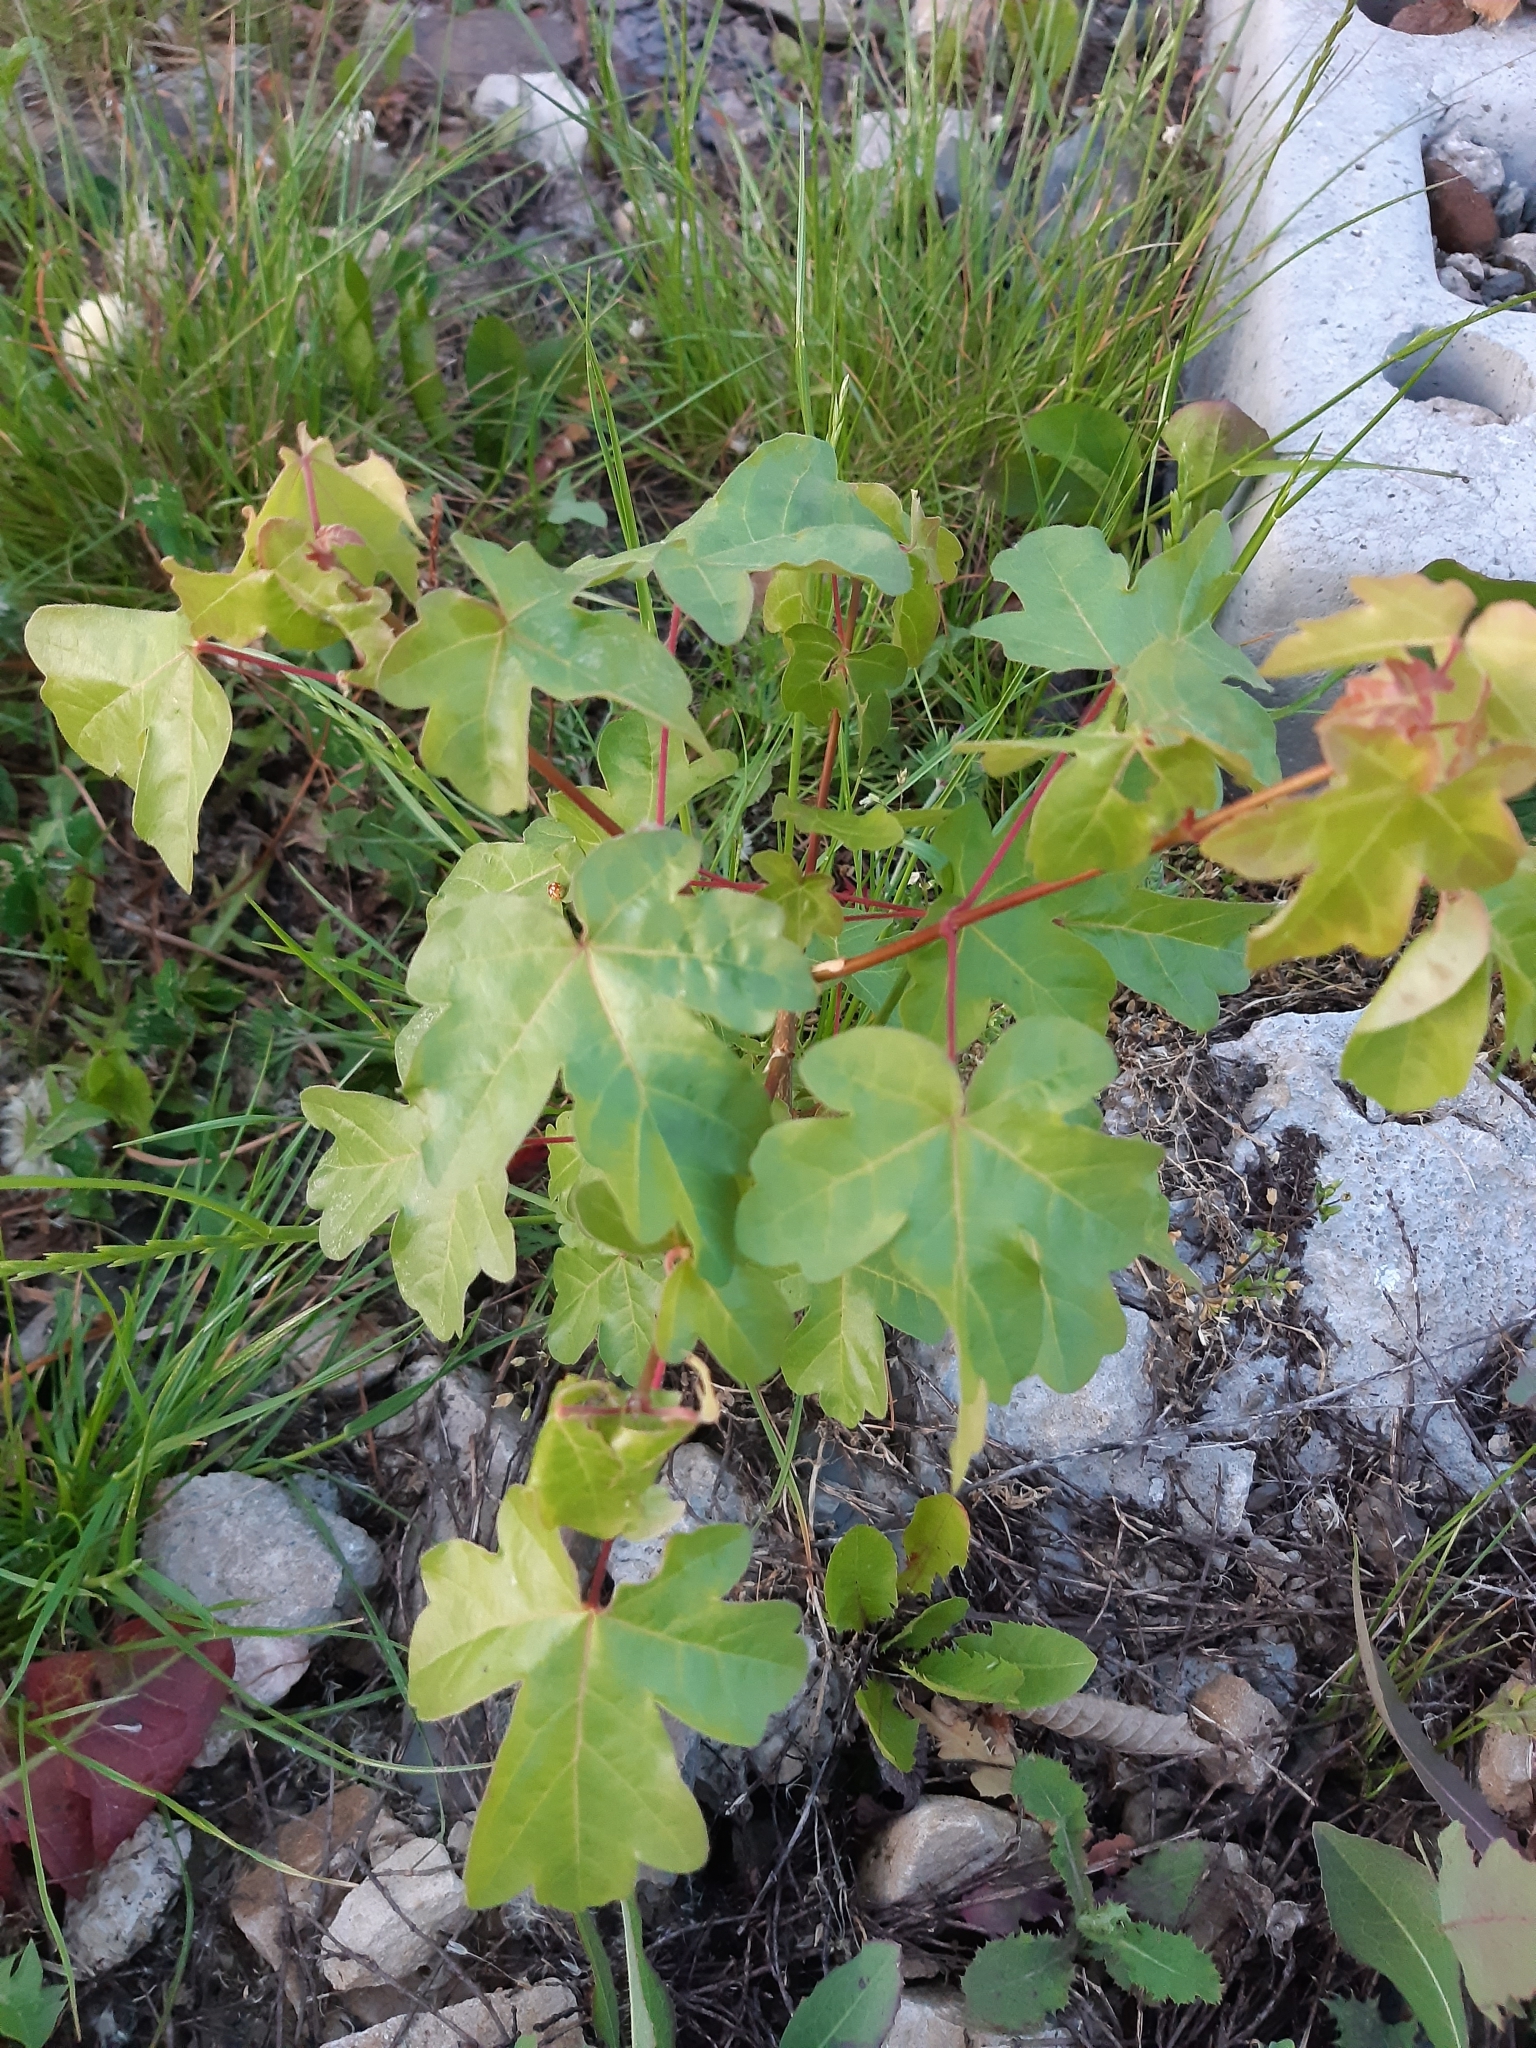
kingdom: Plantae
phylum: Tracheophyta
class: Magnoliopsida
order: Sapindales
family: Sapindaceae
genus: Acer
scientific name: Acer campestre
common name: Field maple
